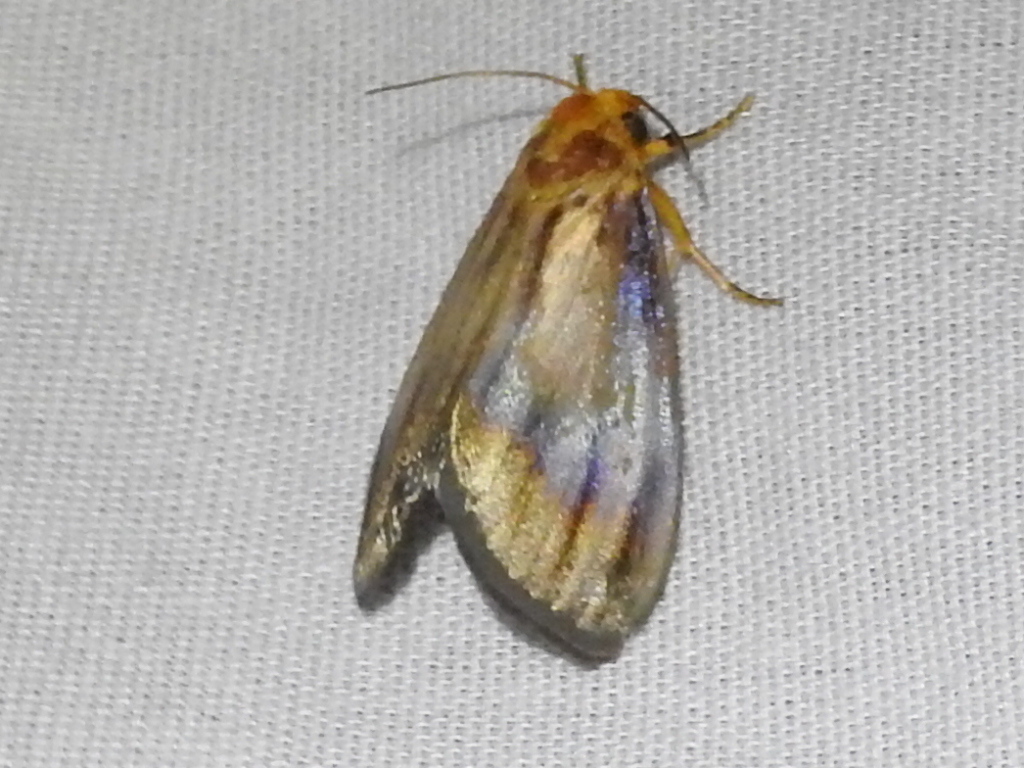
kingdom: Animalia
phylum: Arthropoda
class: Insecta
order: Lepidoptera
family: Noctuidae
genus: Antaplaga
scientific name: Antaplaga plesioglauca
